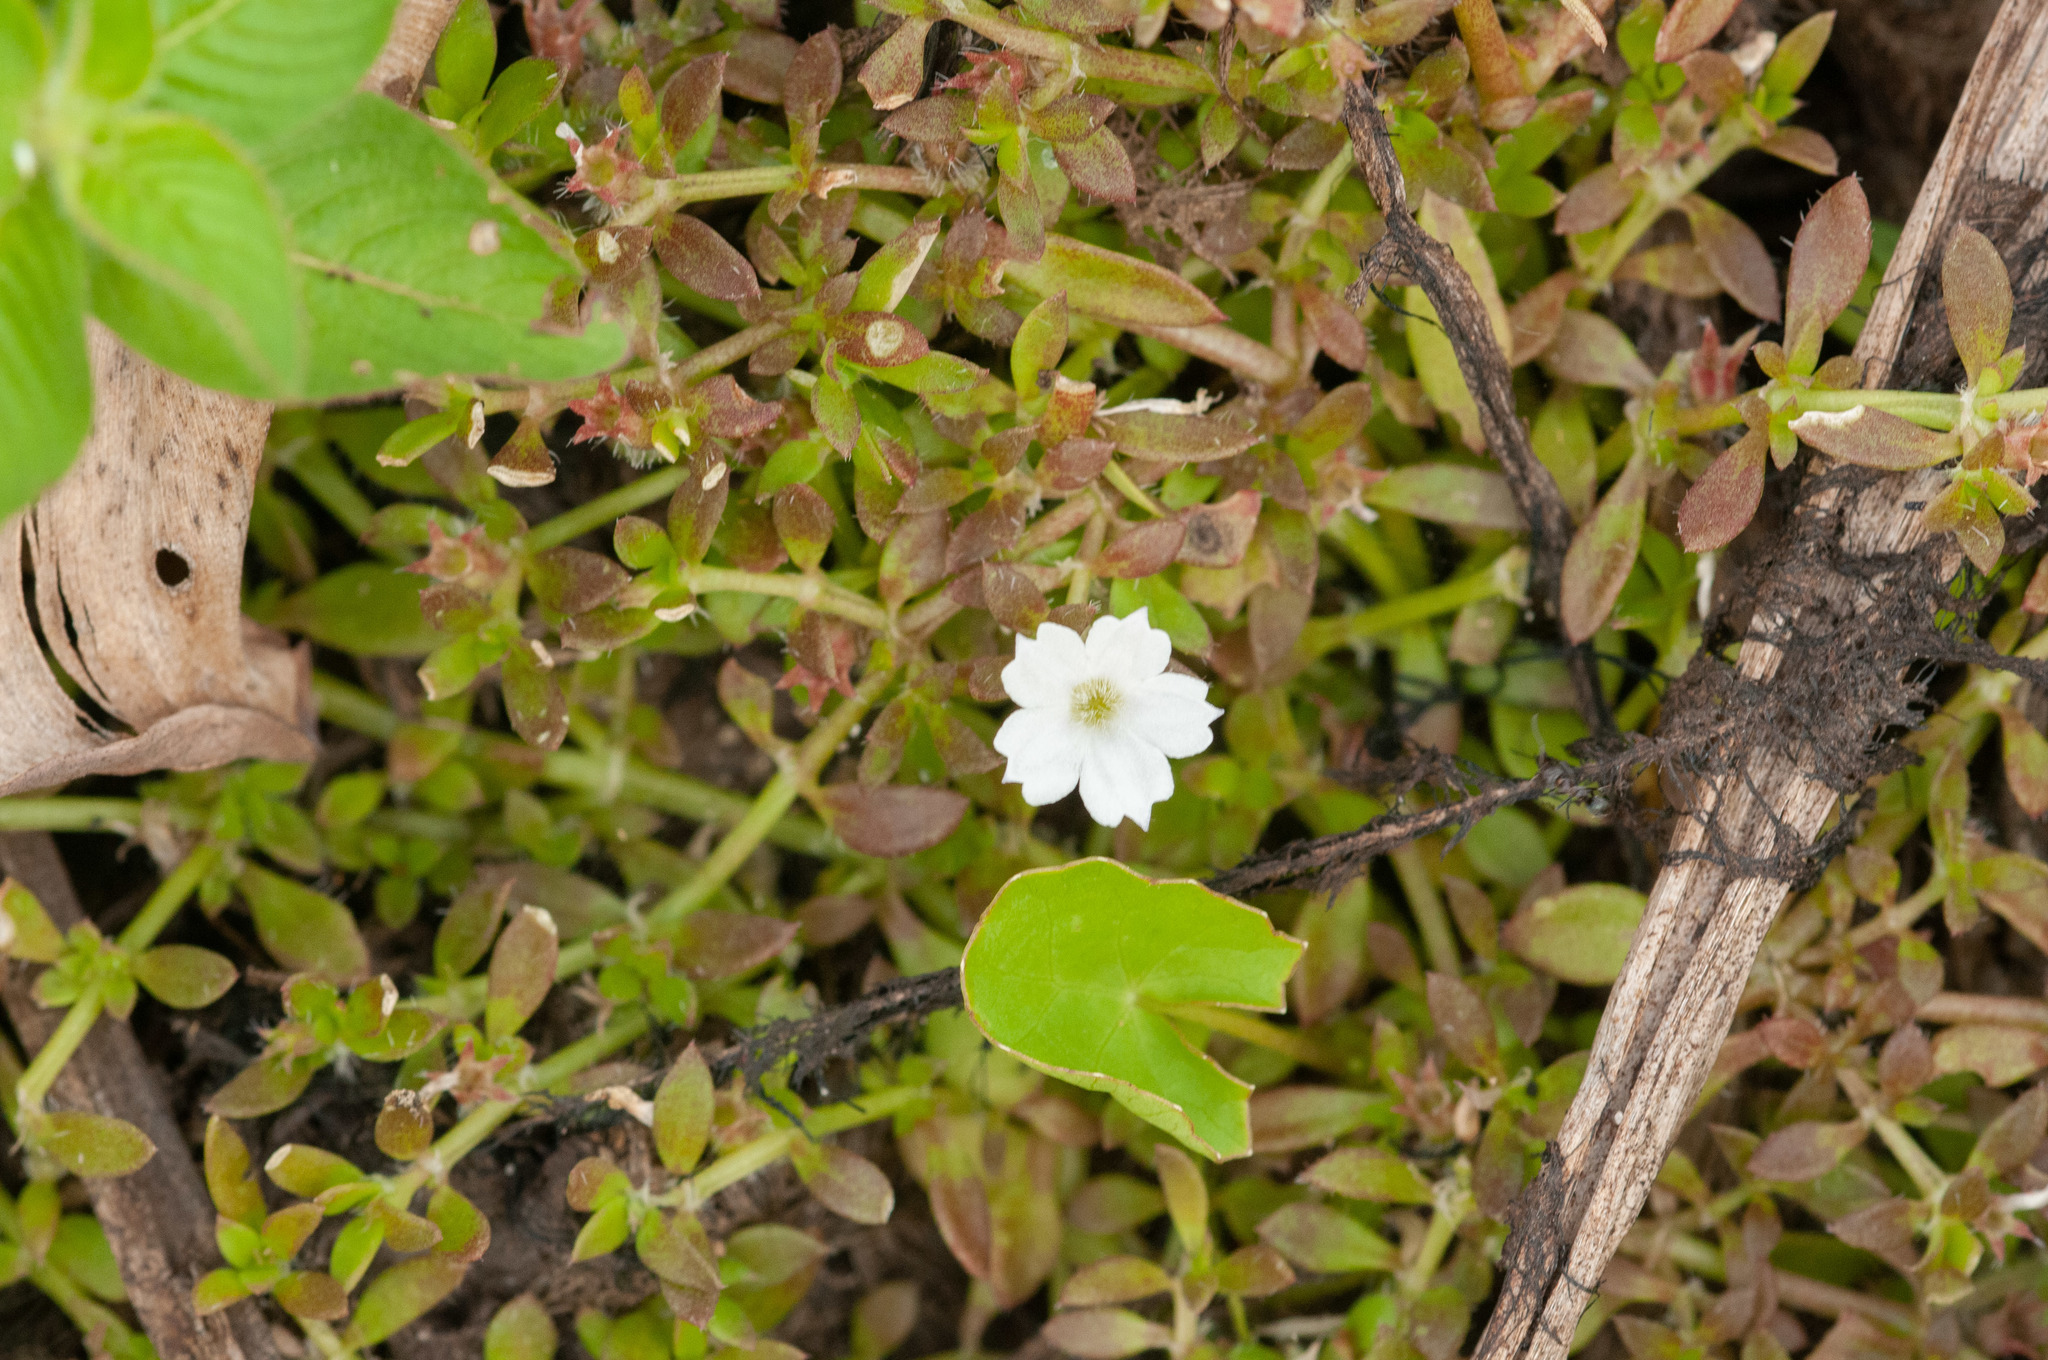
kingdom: Plantae
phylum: Tracheophyta
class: Magnoliopsida
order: Gentianales
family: Rubiaceae
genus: Dentella
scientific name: Dentella repens
